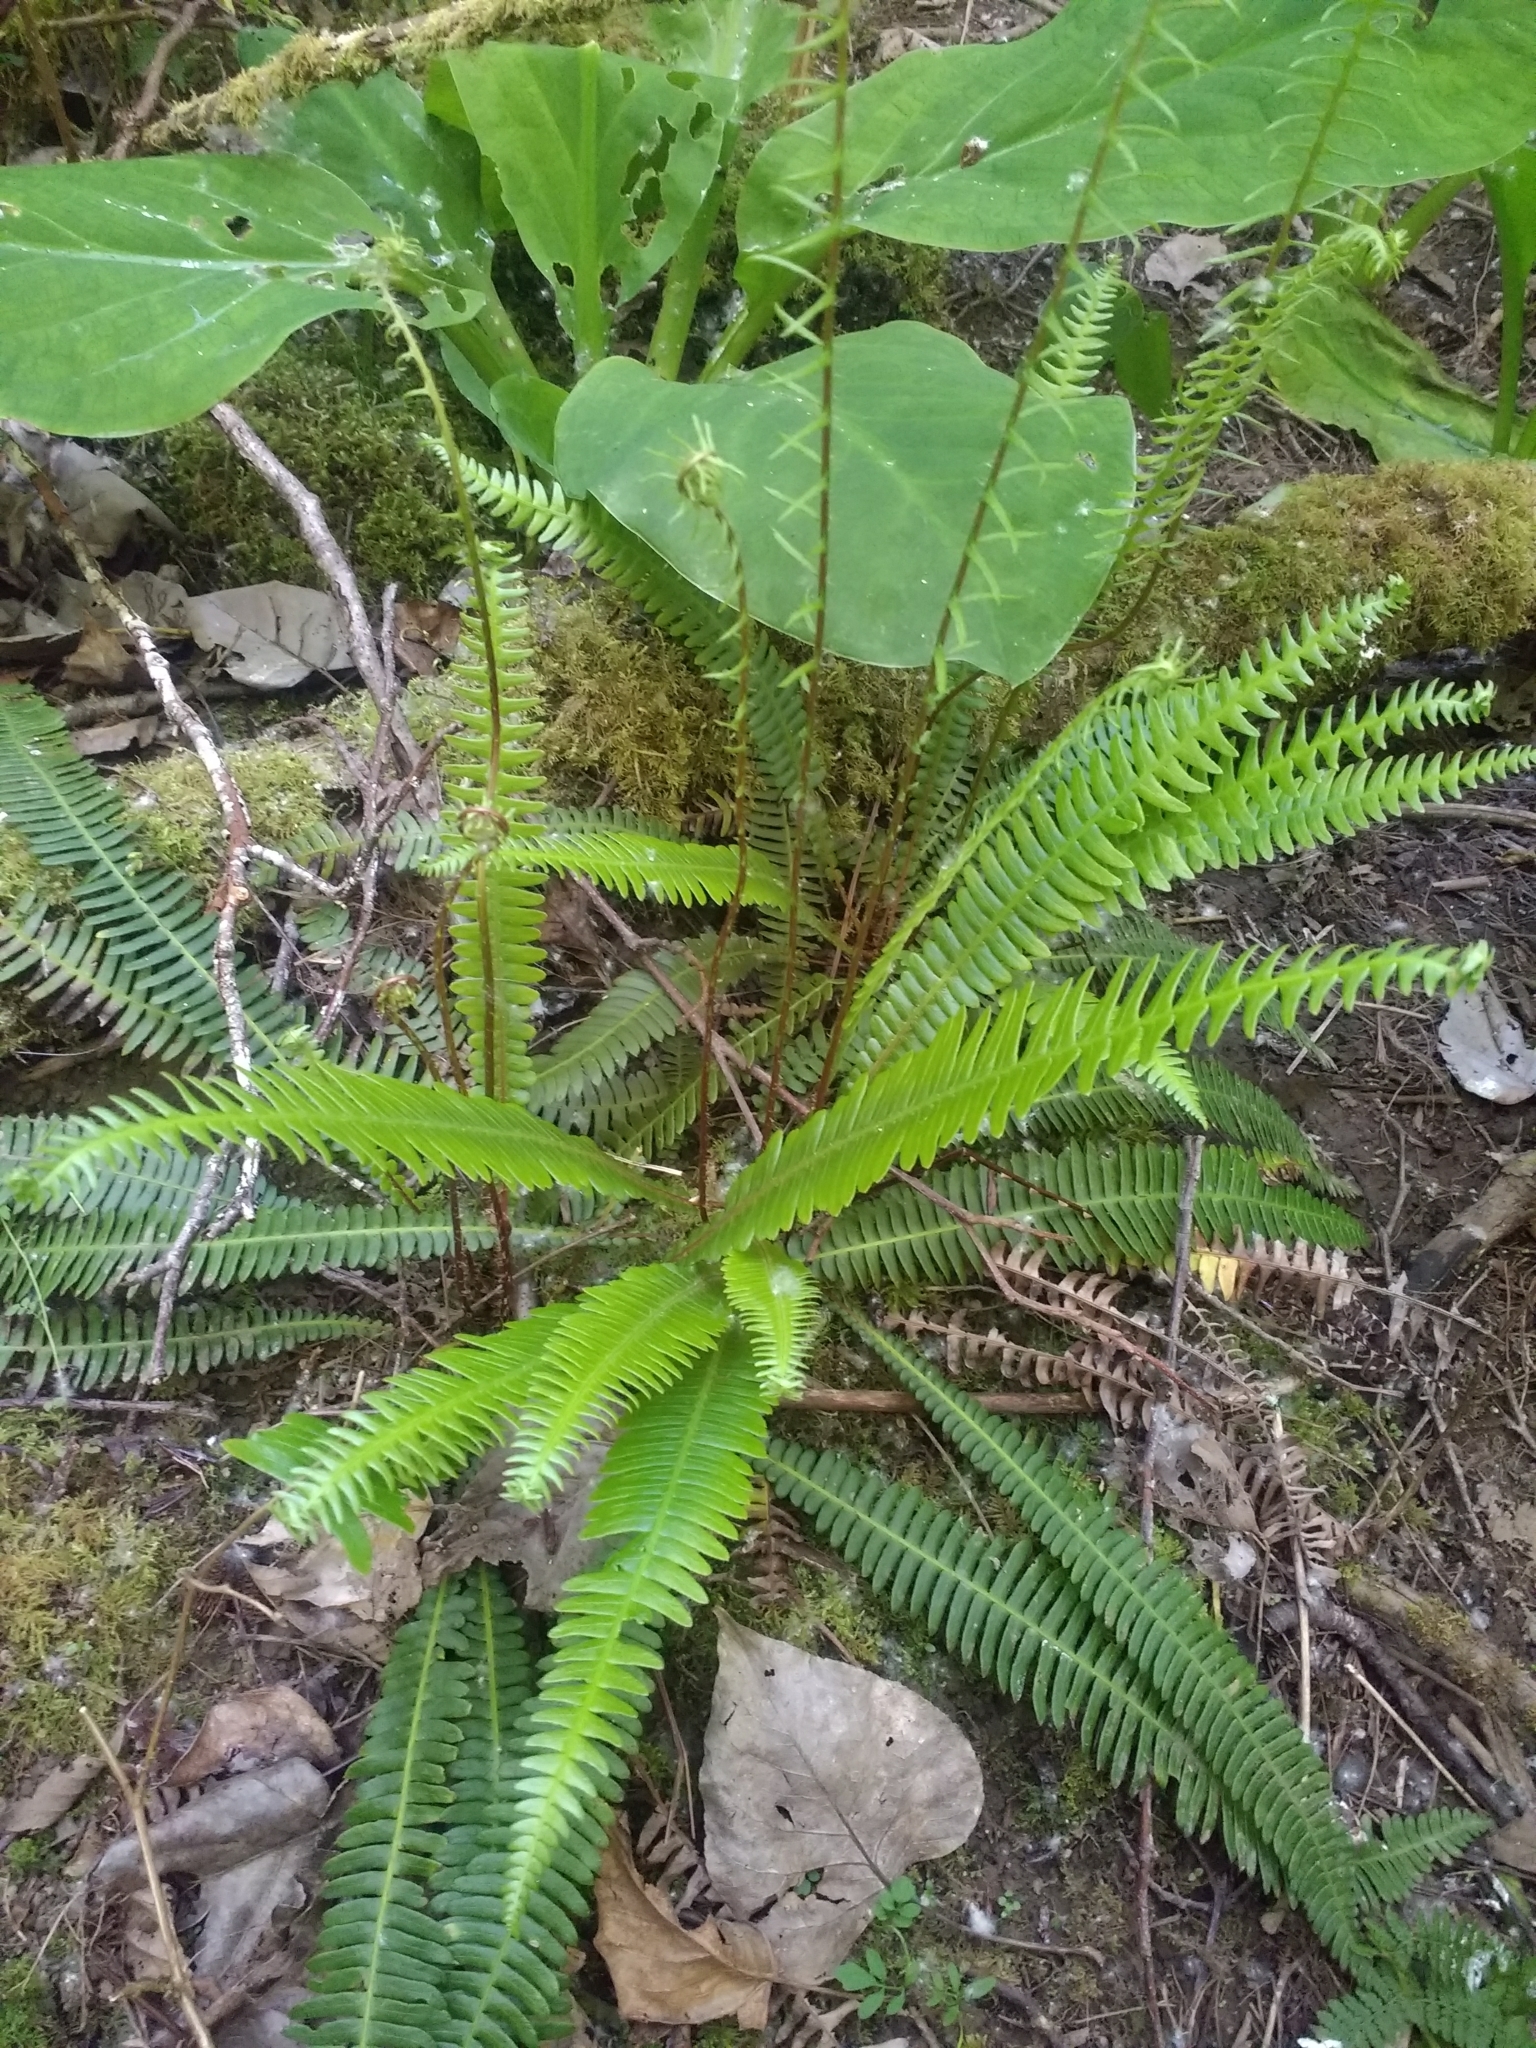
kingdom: Plantae
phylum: Tracheophyta
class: Polypodiopsida
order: Polypodiales
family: Blechnaceae
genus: Struthiopteris
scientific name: Struthiopteris spicant
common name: Deer fern
